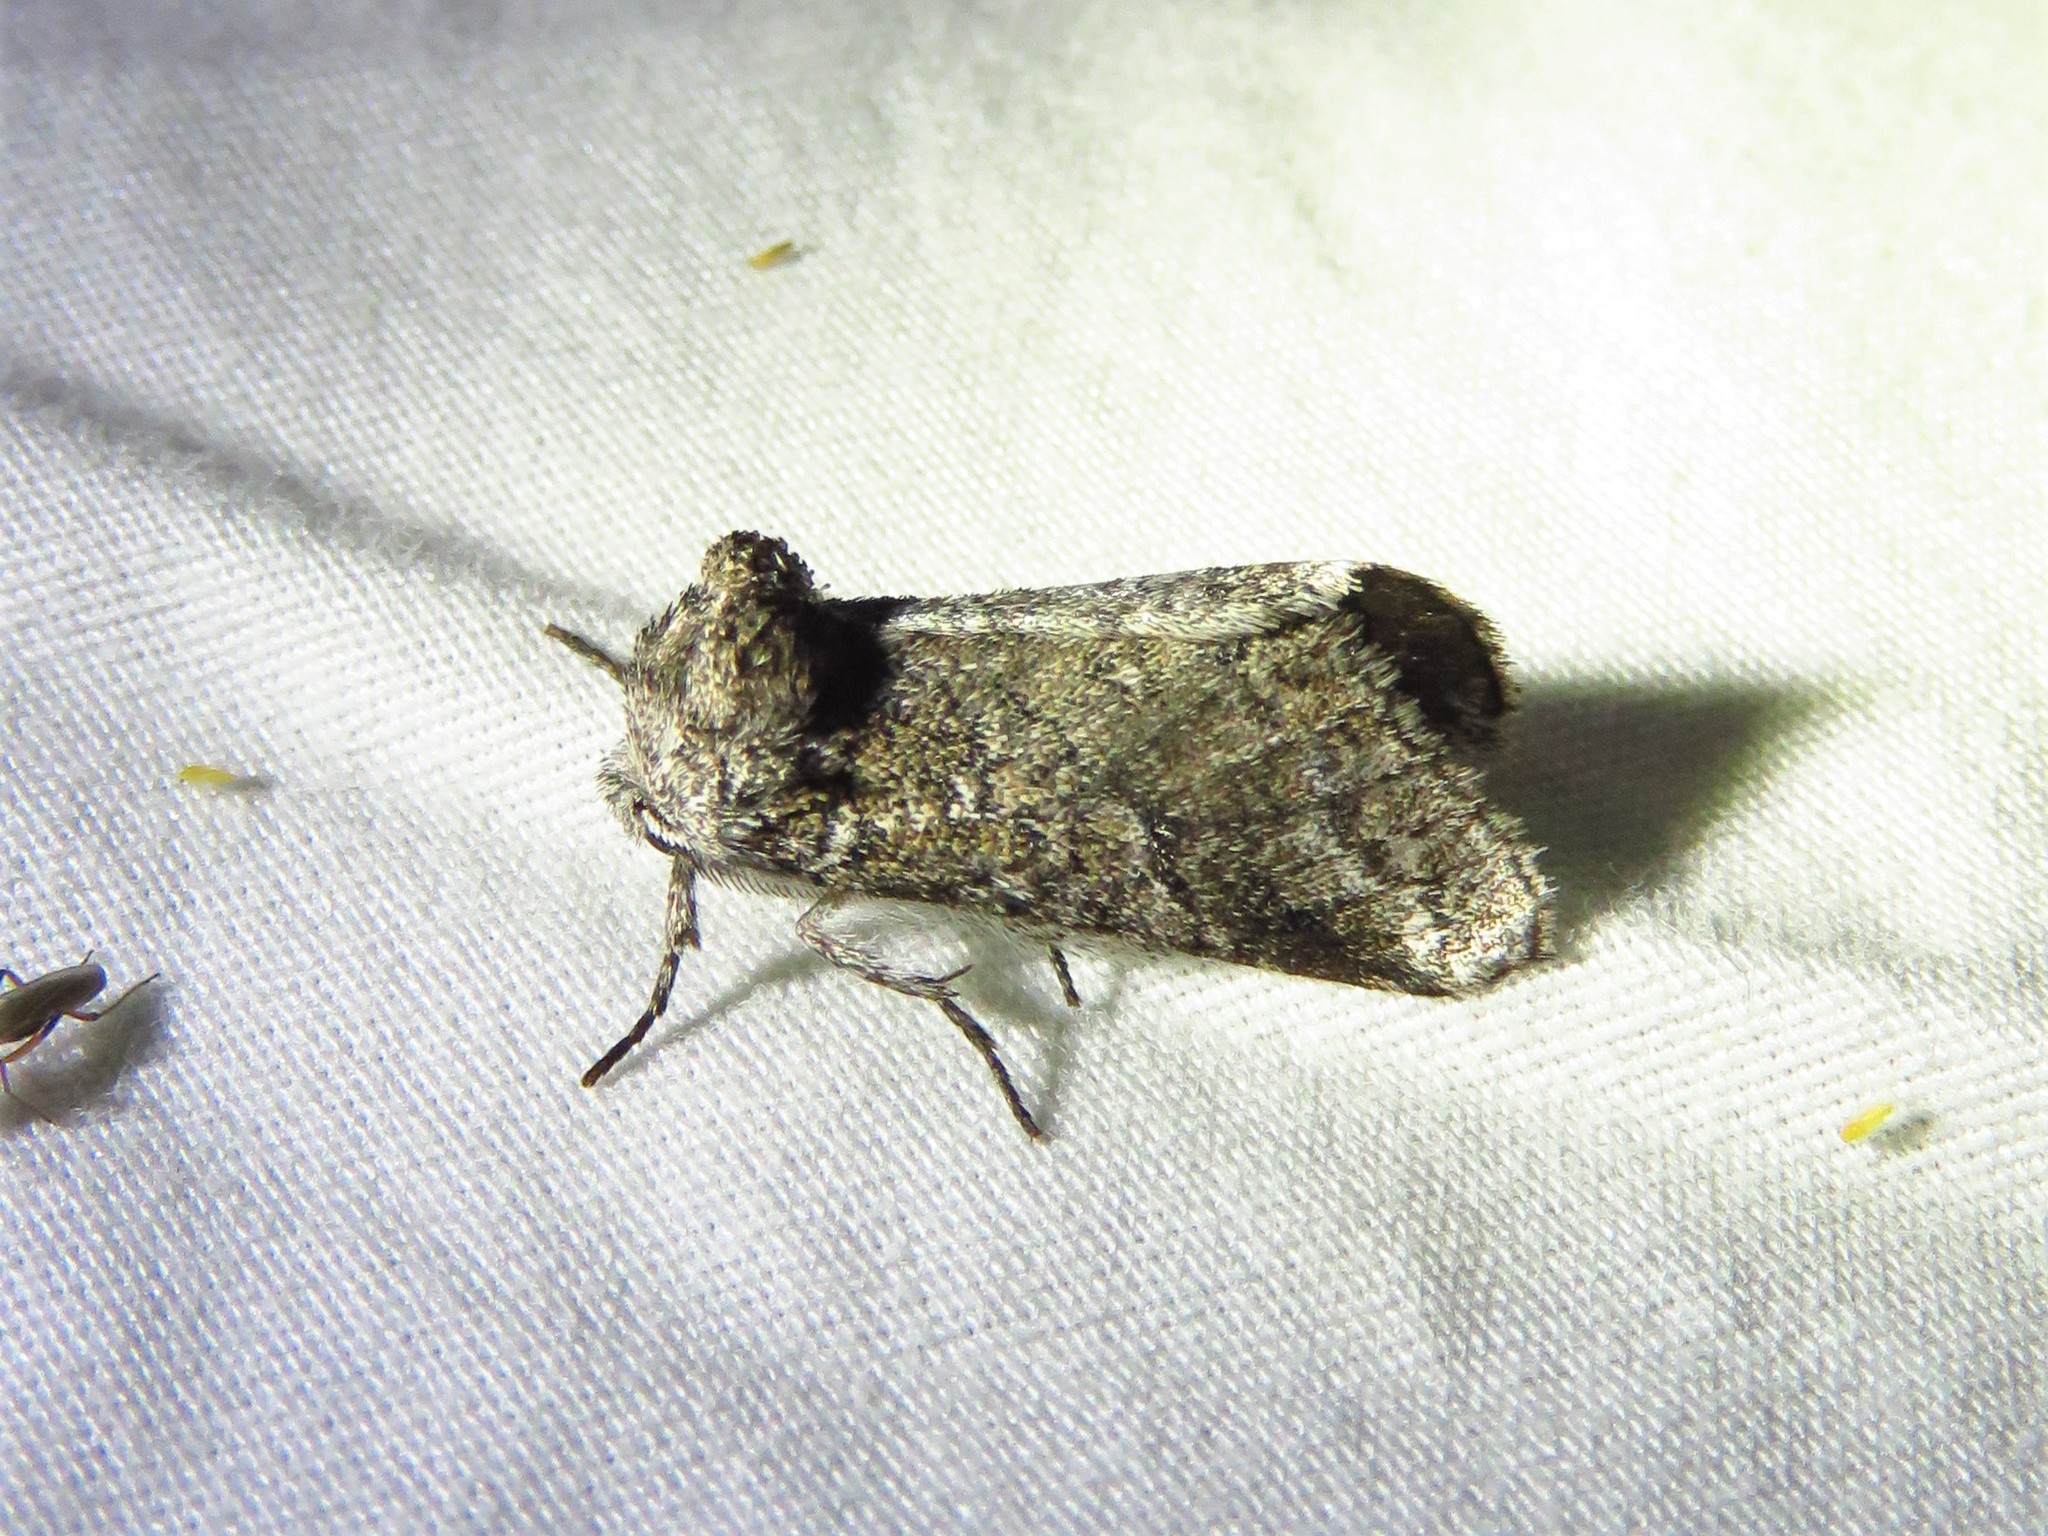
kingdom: Animalia
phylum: Arthropoda
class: Insecta
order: Lepidoptera
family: Notodontidae
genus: Litodonta
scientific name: Litodonta contrasta
